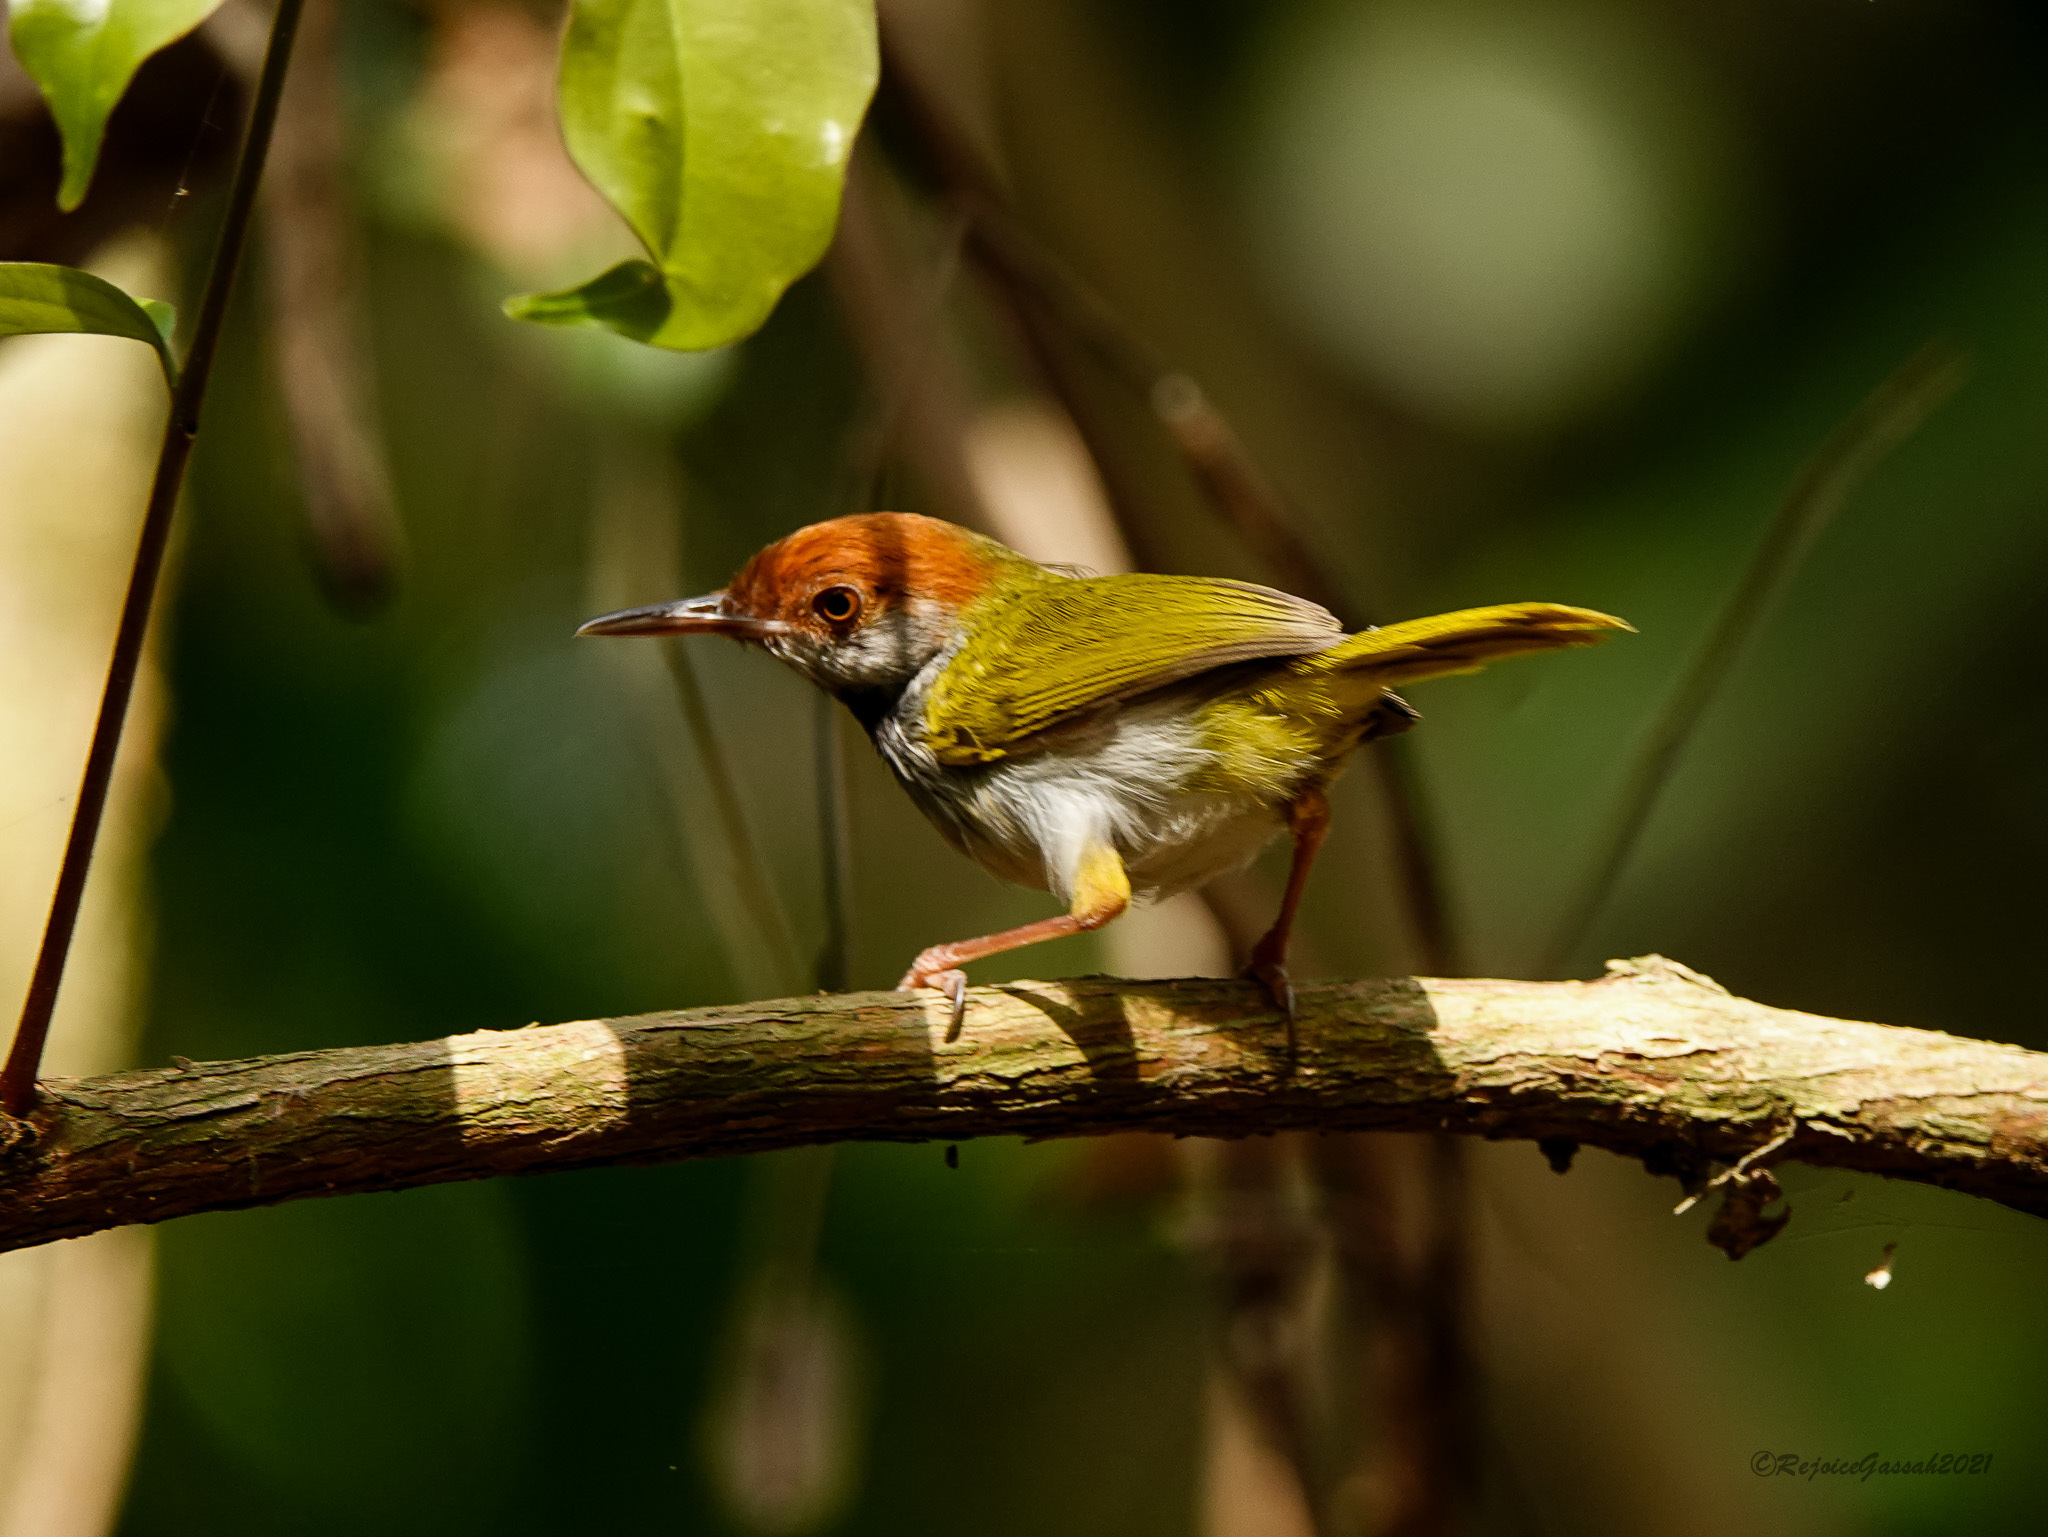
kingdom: Animalia
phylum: Chordata
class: Aves
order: Passeriformes
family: Cisticolidae
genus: Orthotomus
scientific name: Orthotomus atrogularis
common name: Dark-necked tailorbird
